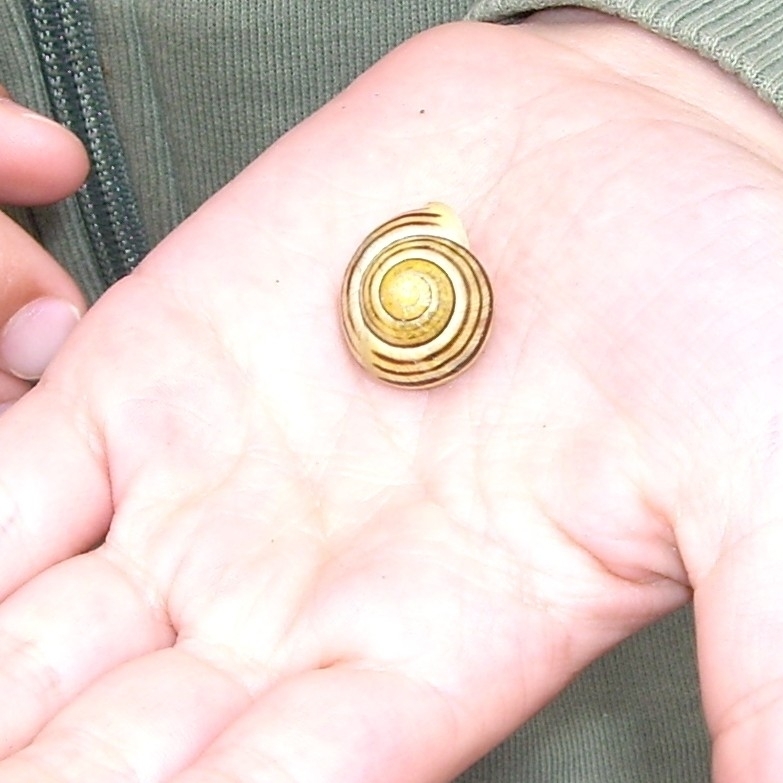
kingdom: Animalia
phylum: Mollusca
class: Gastropoda
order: Stylommatophora
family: Helicidae
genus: Cepaea
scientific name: Cepaea hortensis
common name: White-lip gardensnail
